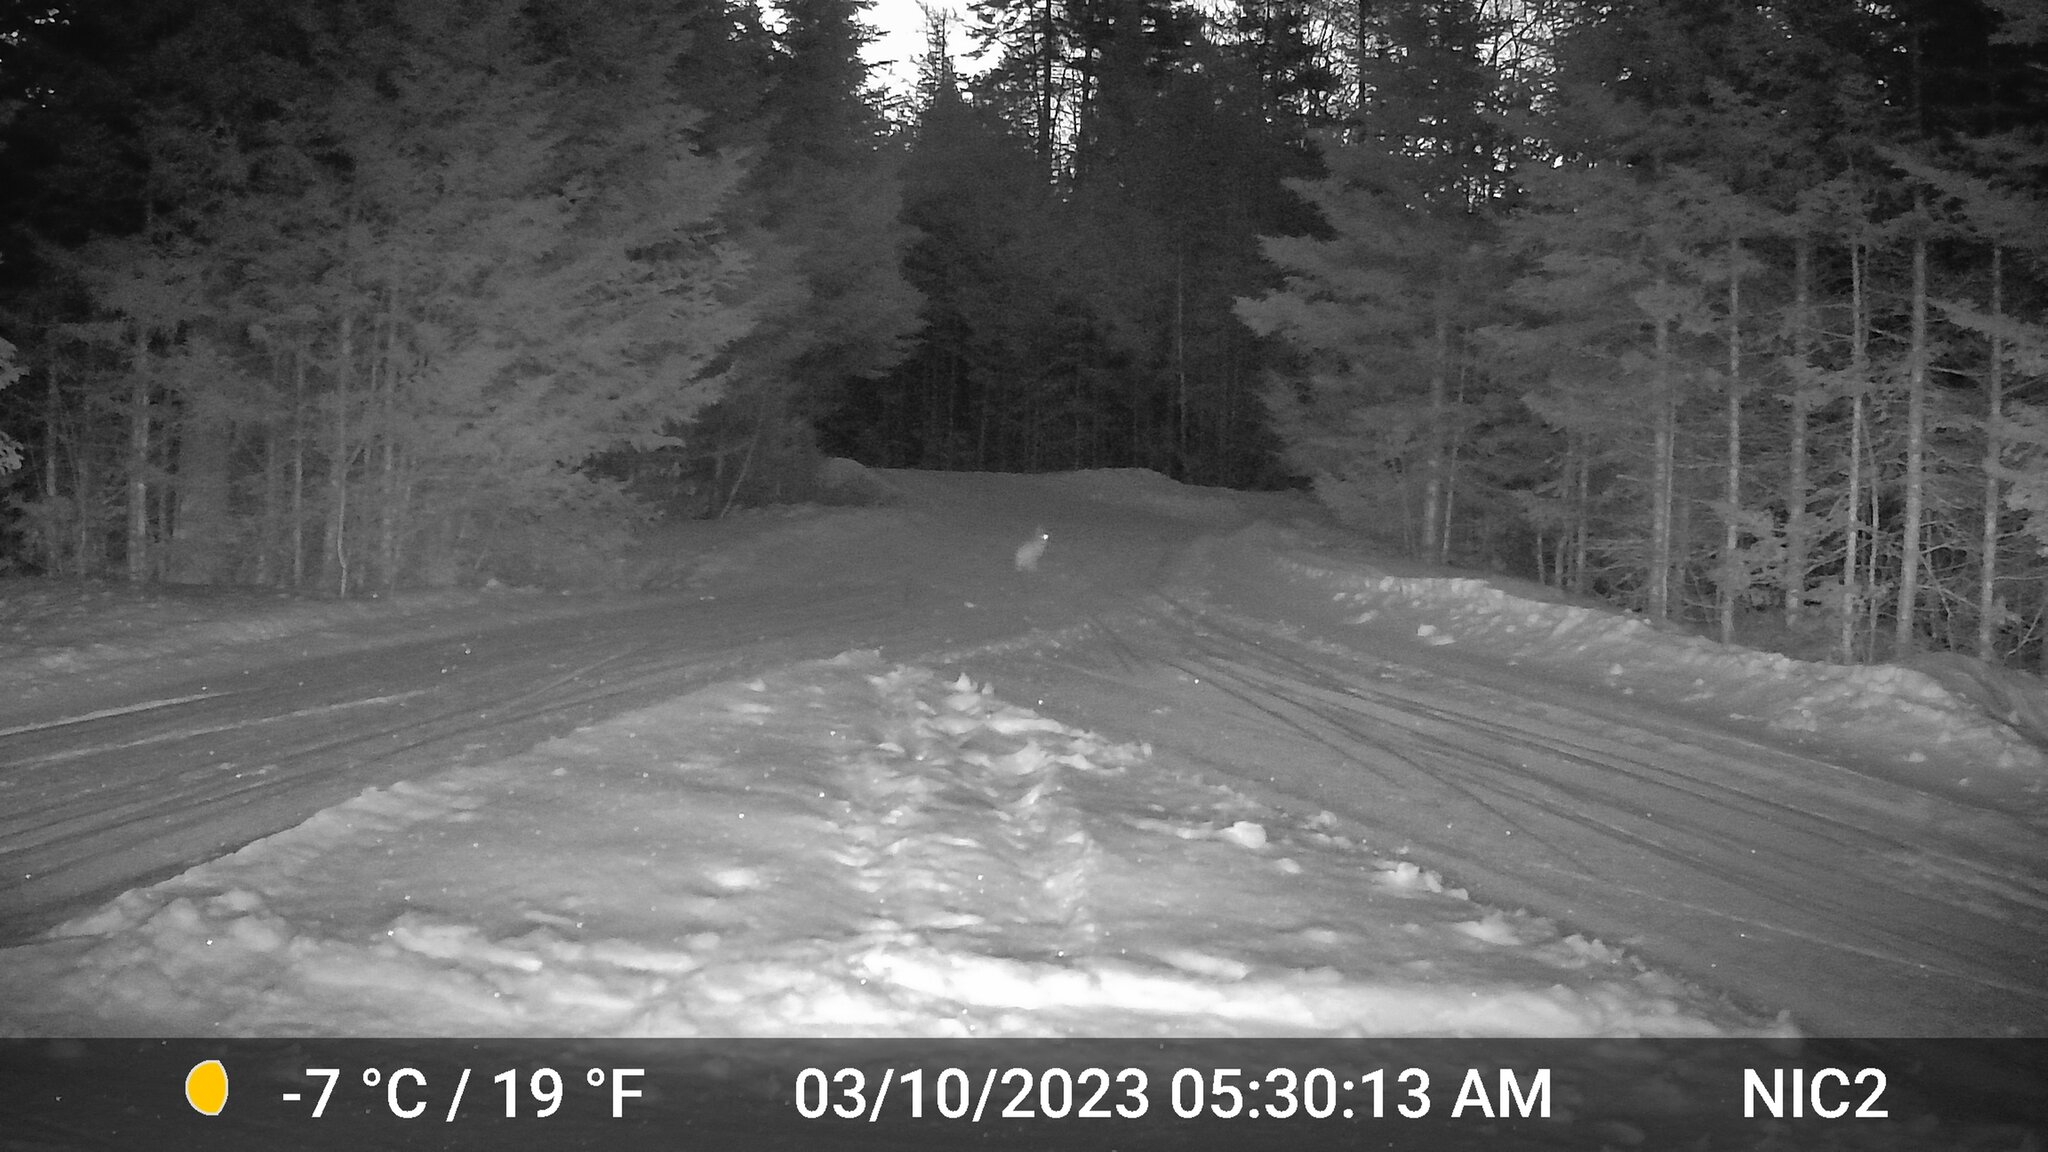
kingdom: Animalia
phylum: Chordata
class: Mammalia
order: Lagomorpha
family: Leporidae
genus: Lepus
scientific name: Lepus americanus
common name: Snowshoe hare
